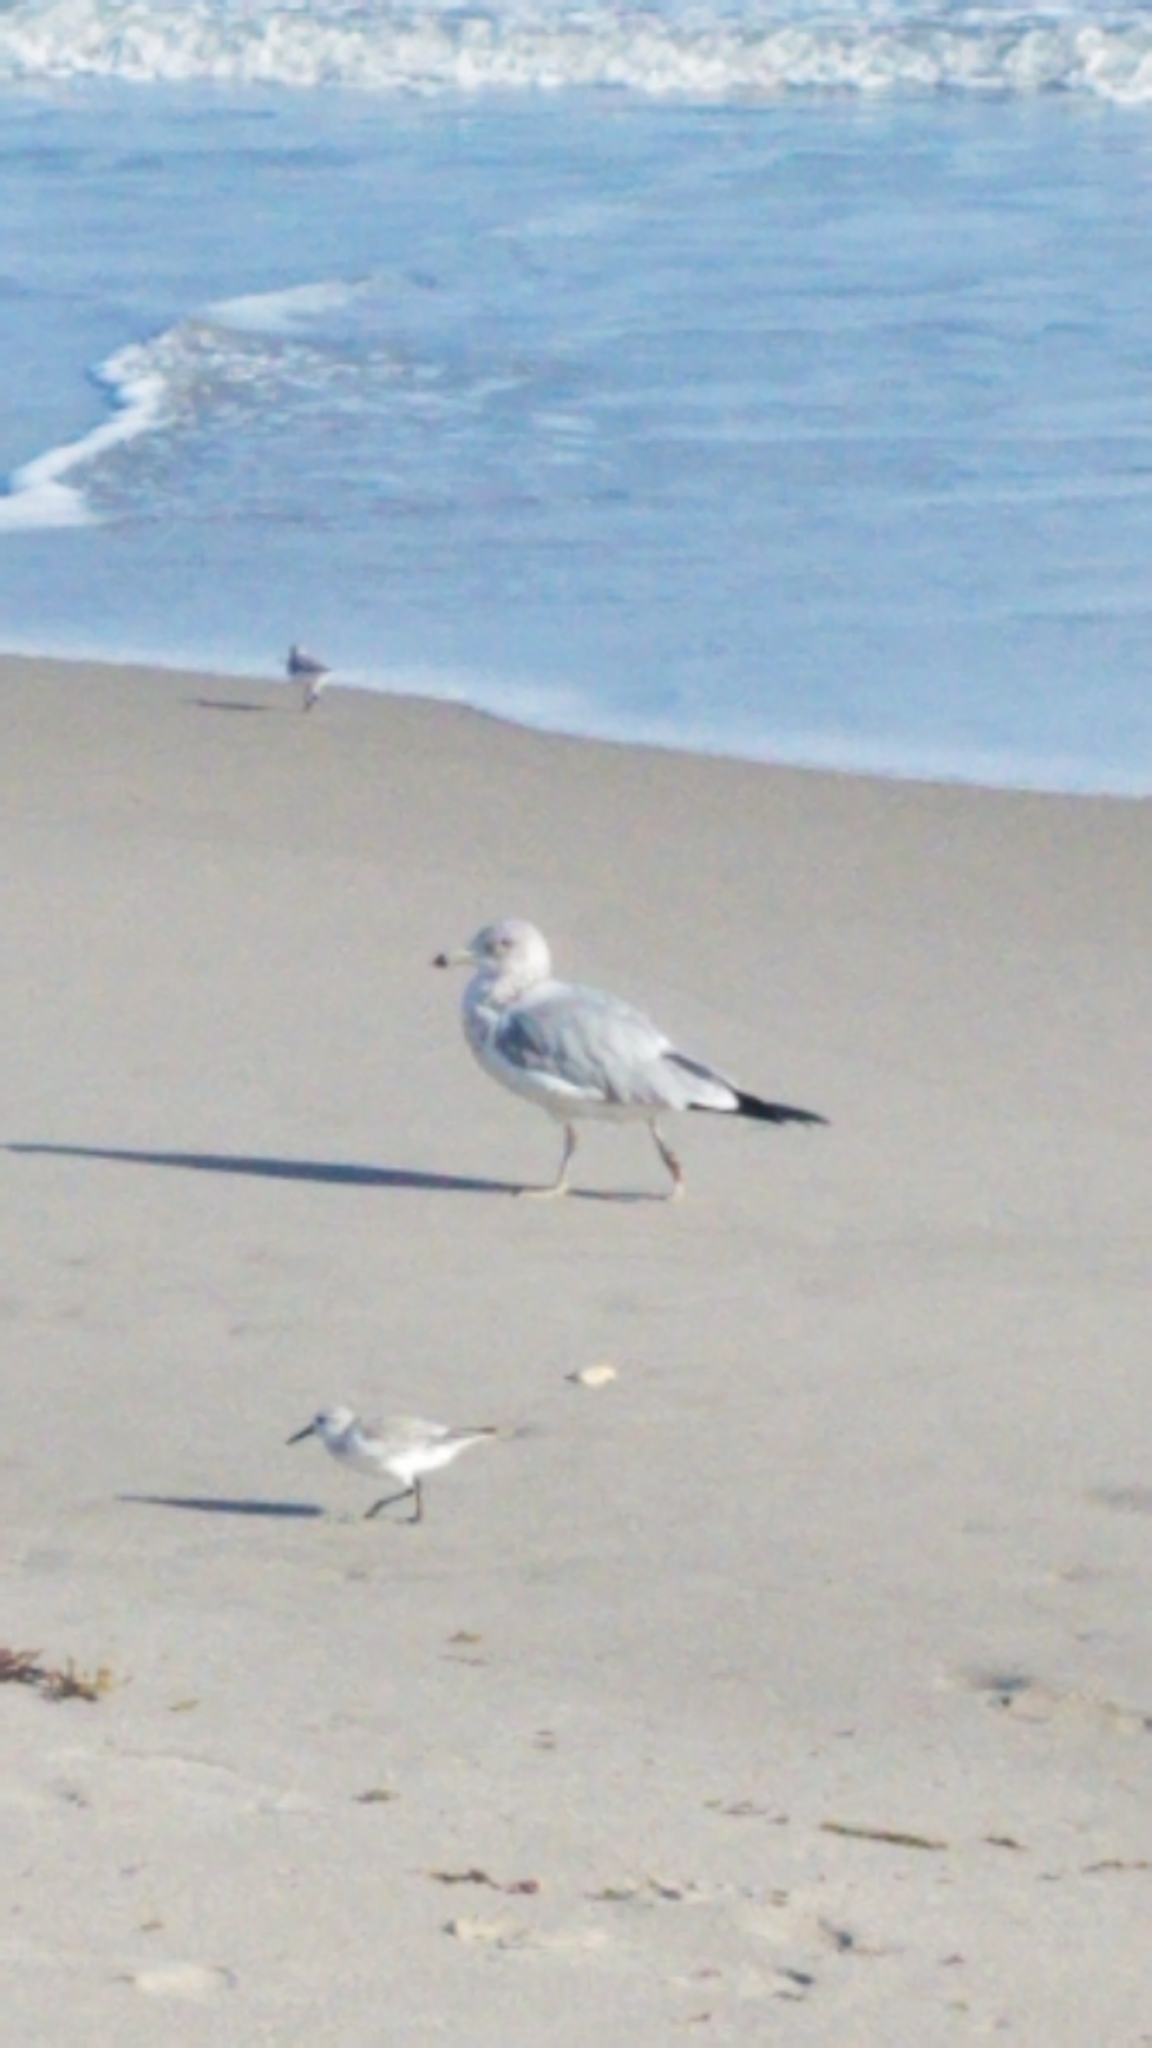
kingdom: Animalia
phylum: Chordata
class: Aves
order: Charadriiformes
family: Laridae
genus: Larus
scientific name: Larus delawarensis
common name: Ring-billed gull
